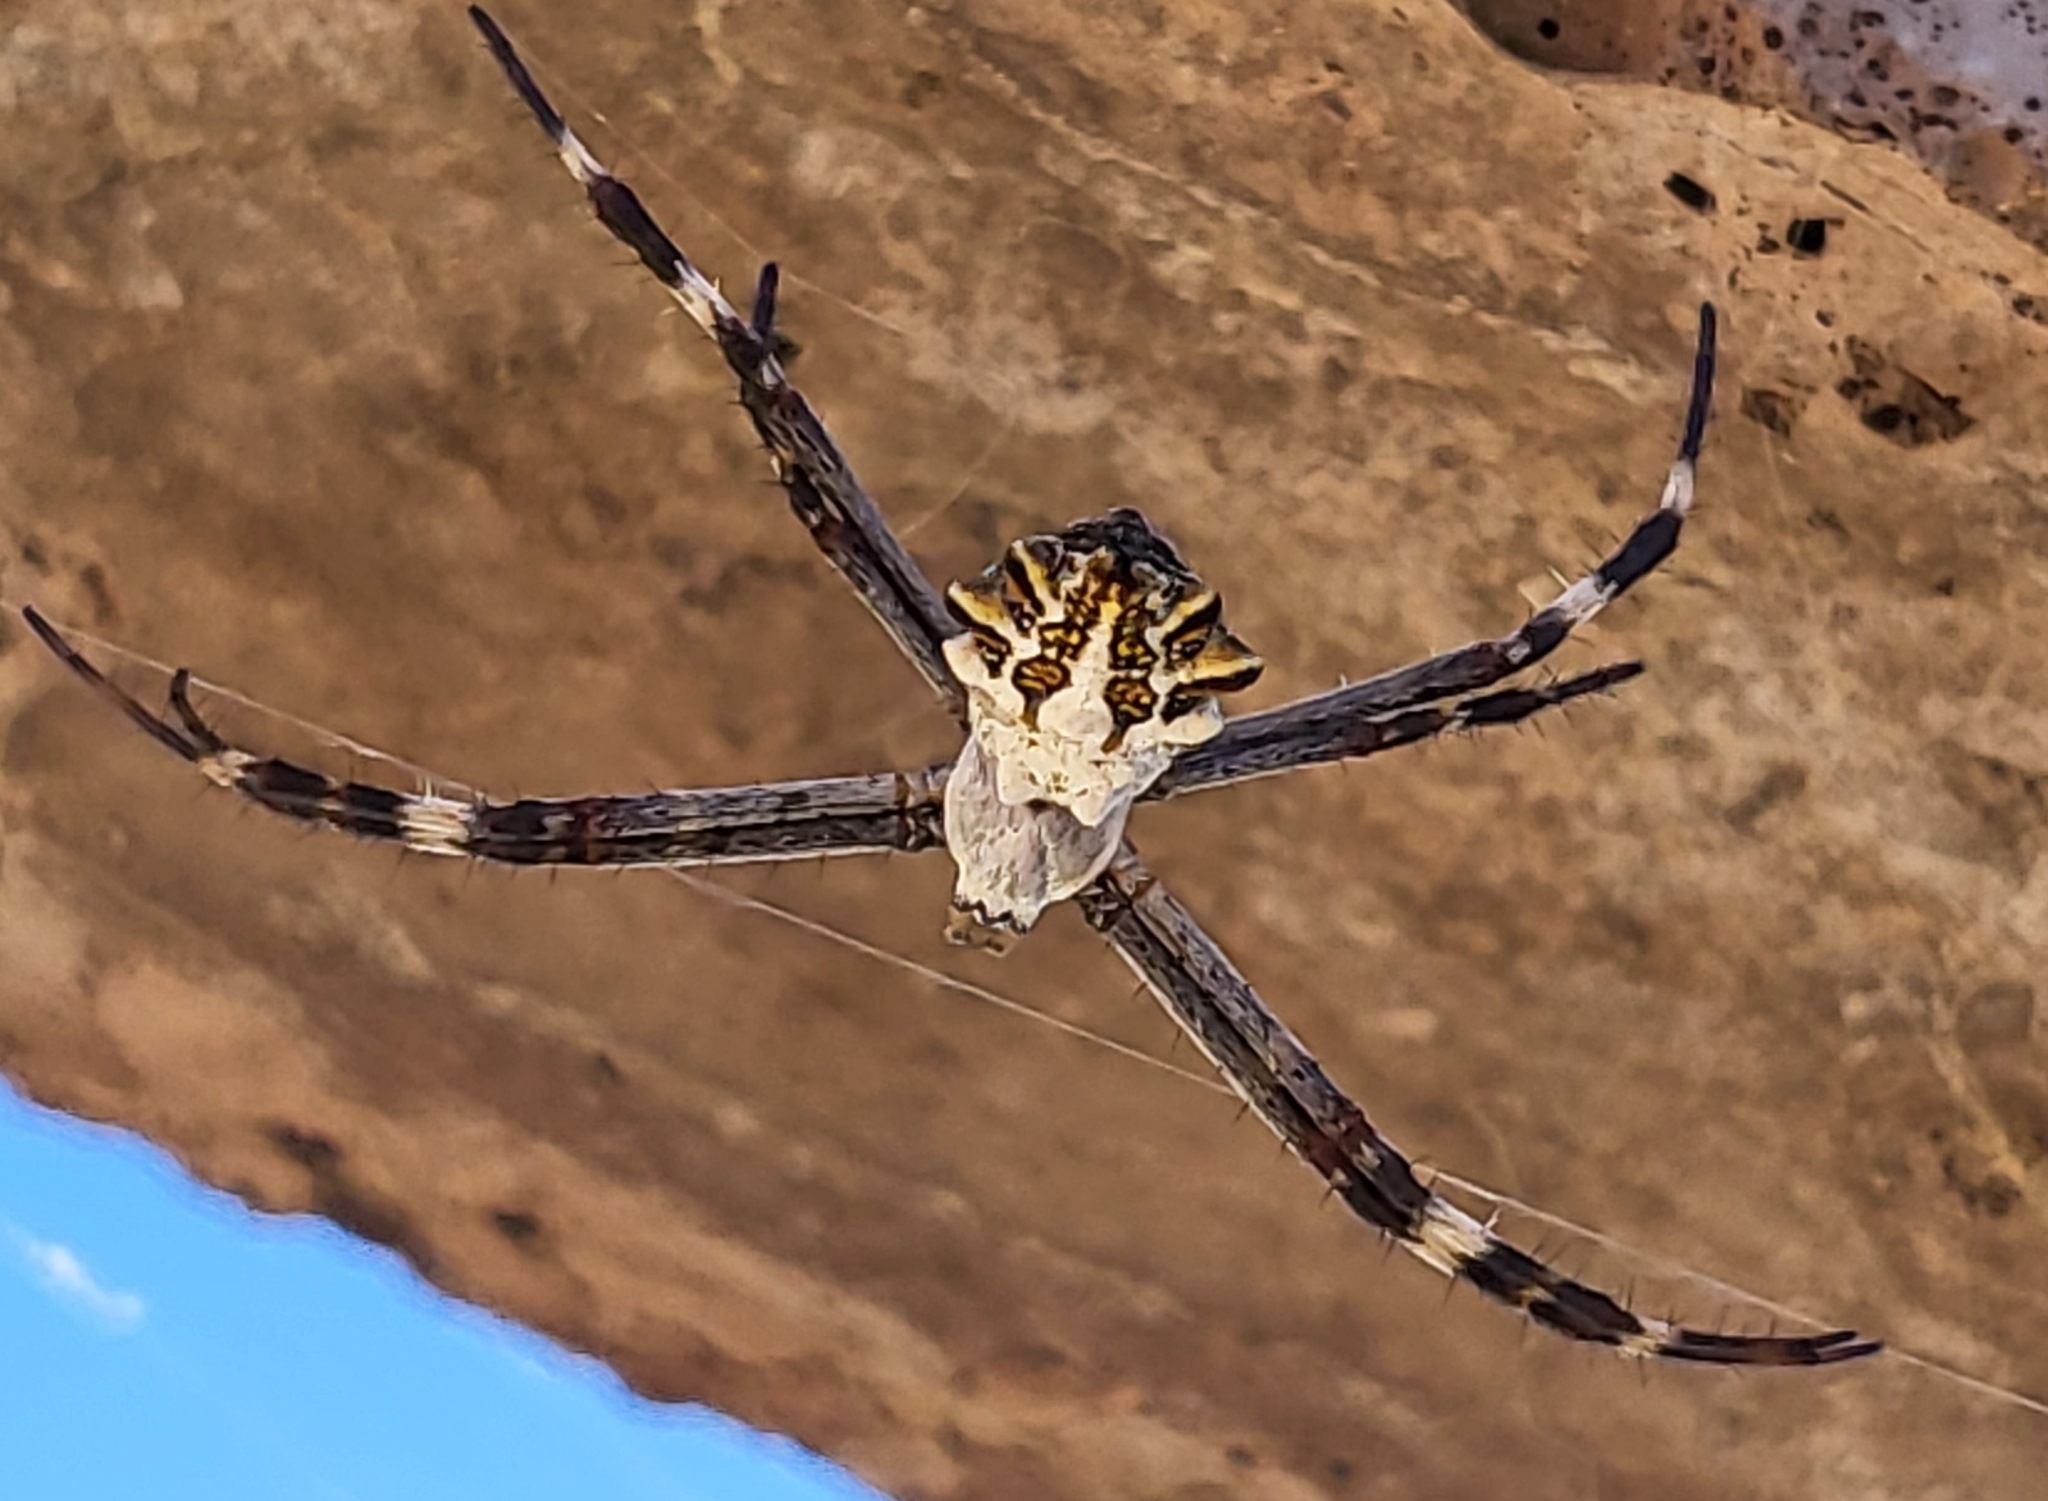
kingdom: Animalia
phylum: Arthropoda
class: Arachnida
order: Araneae
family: Araneidae
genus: Argiope
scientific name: Argiope argentata
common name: Orb weavers
